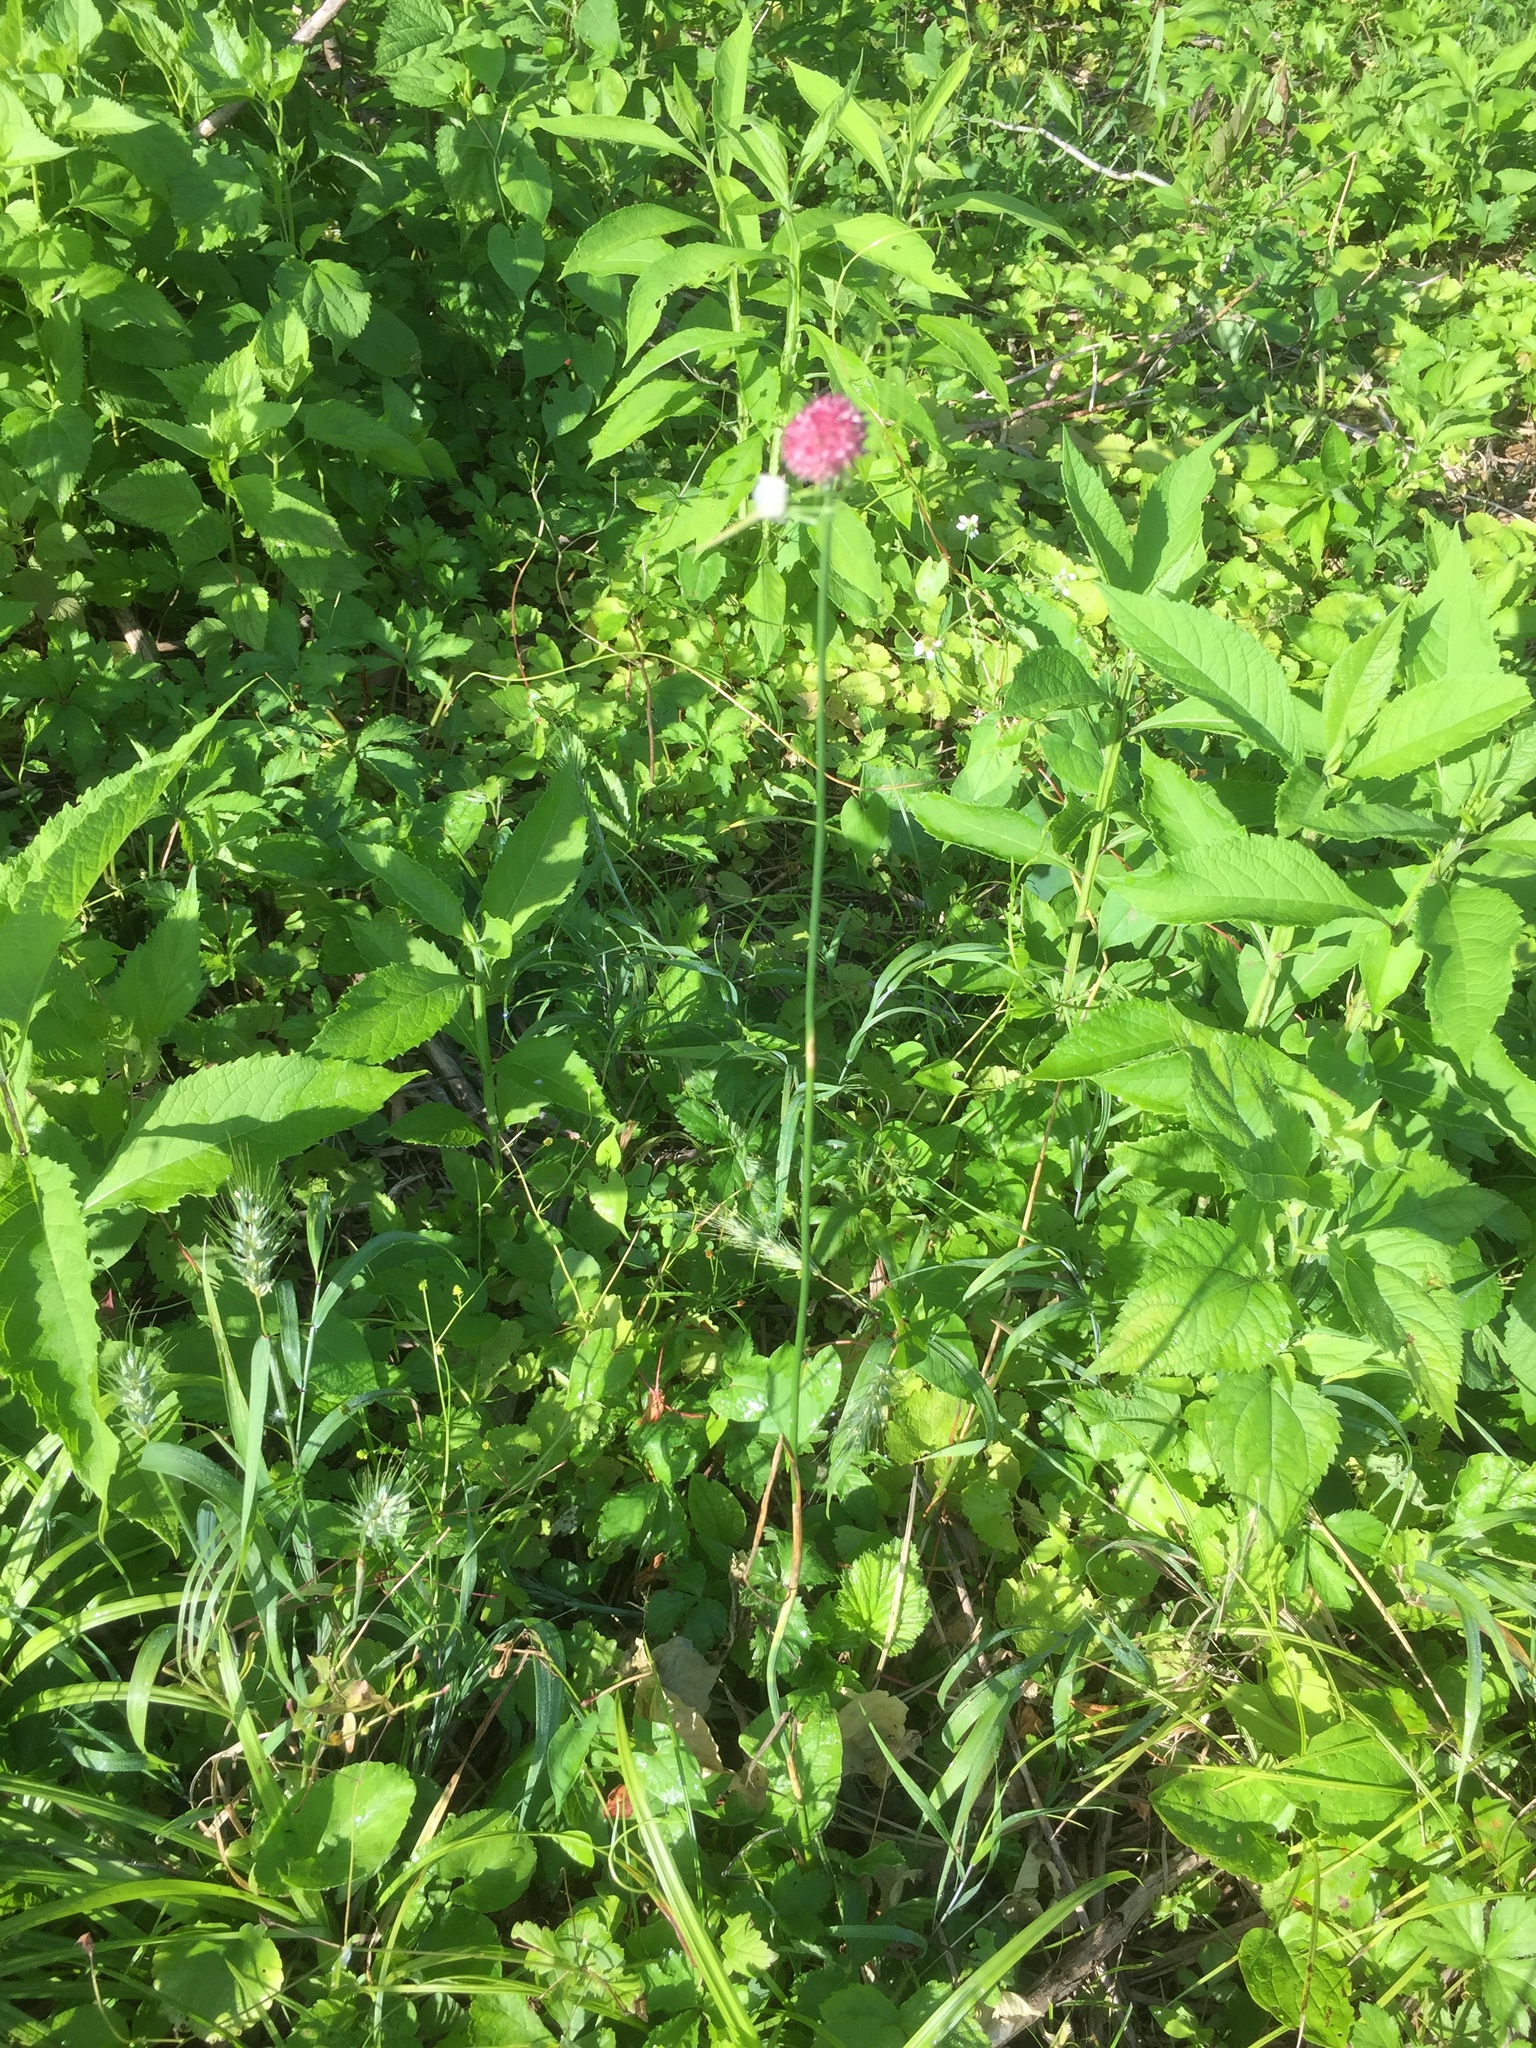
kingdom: Plantae
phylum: Tracheophyta
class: Liliopsida
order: Asparagales
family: Amaryllidaceae
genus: Allium
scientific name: Allium vineale
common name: Crow garlic
